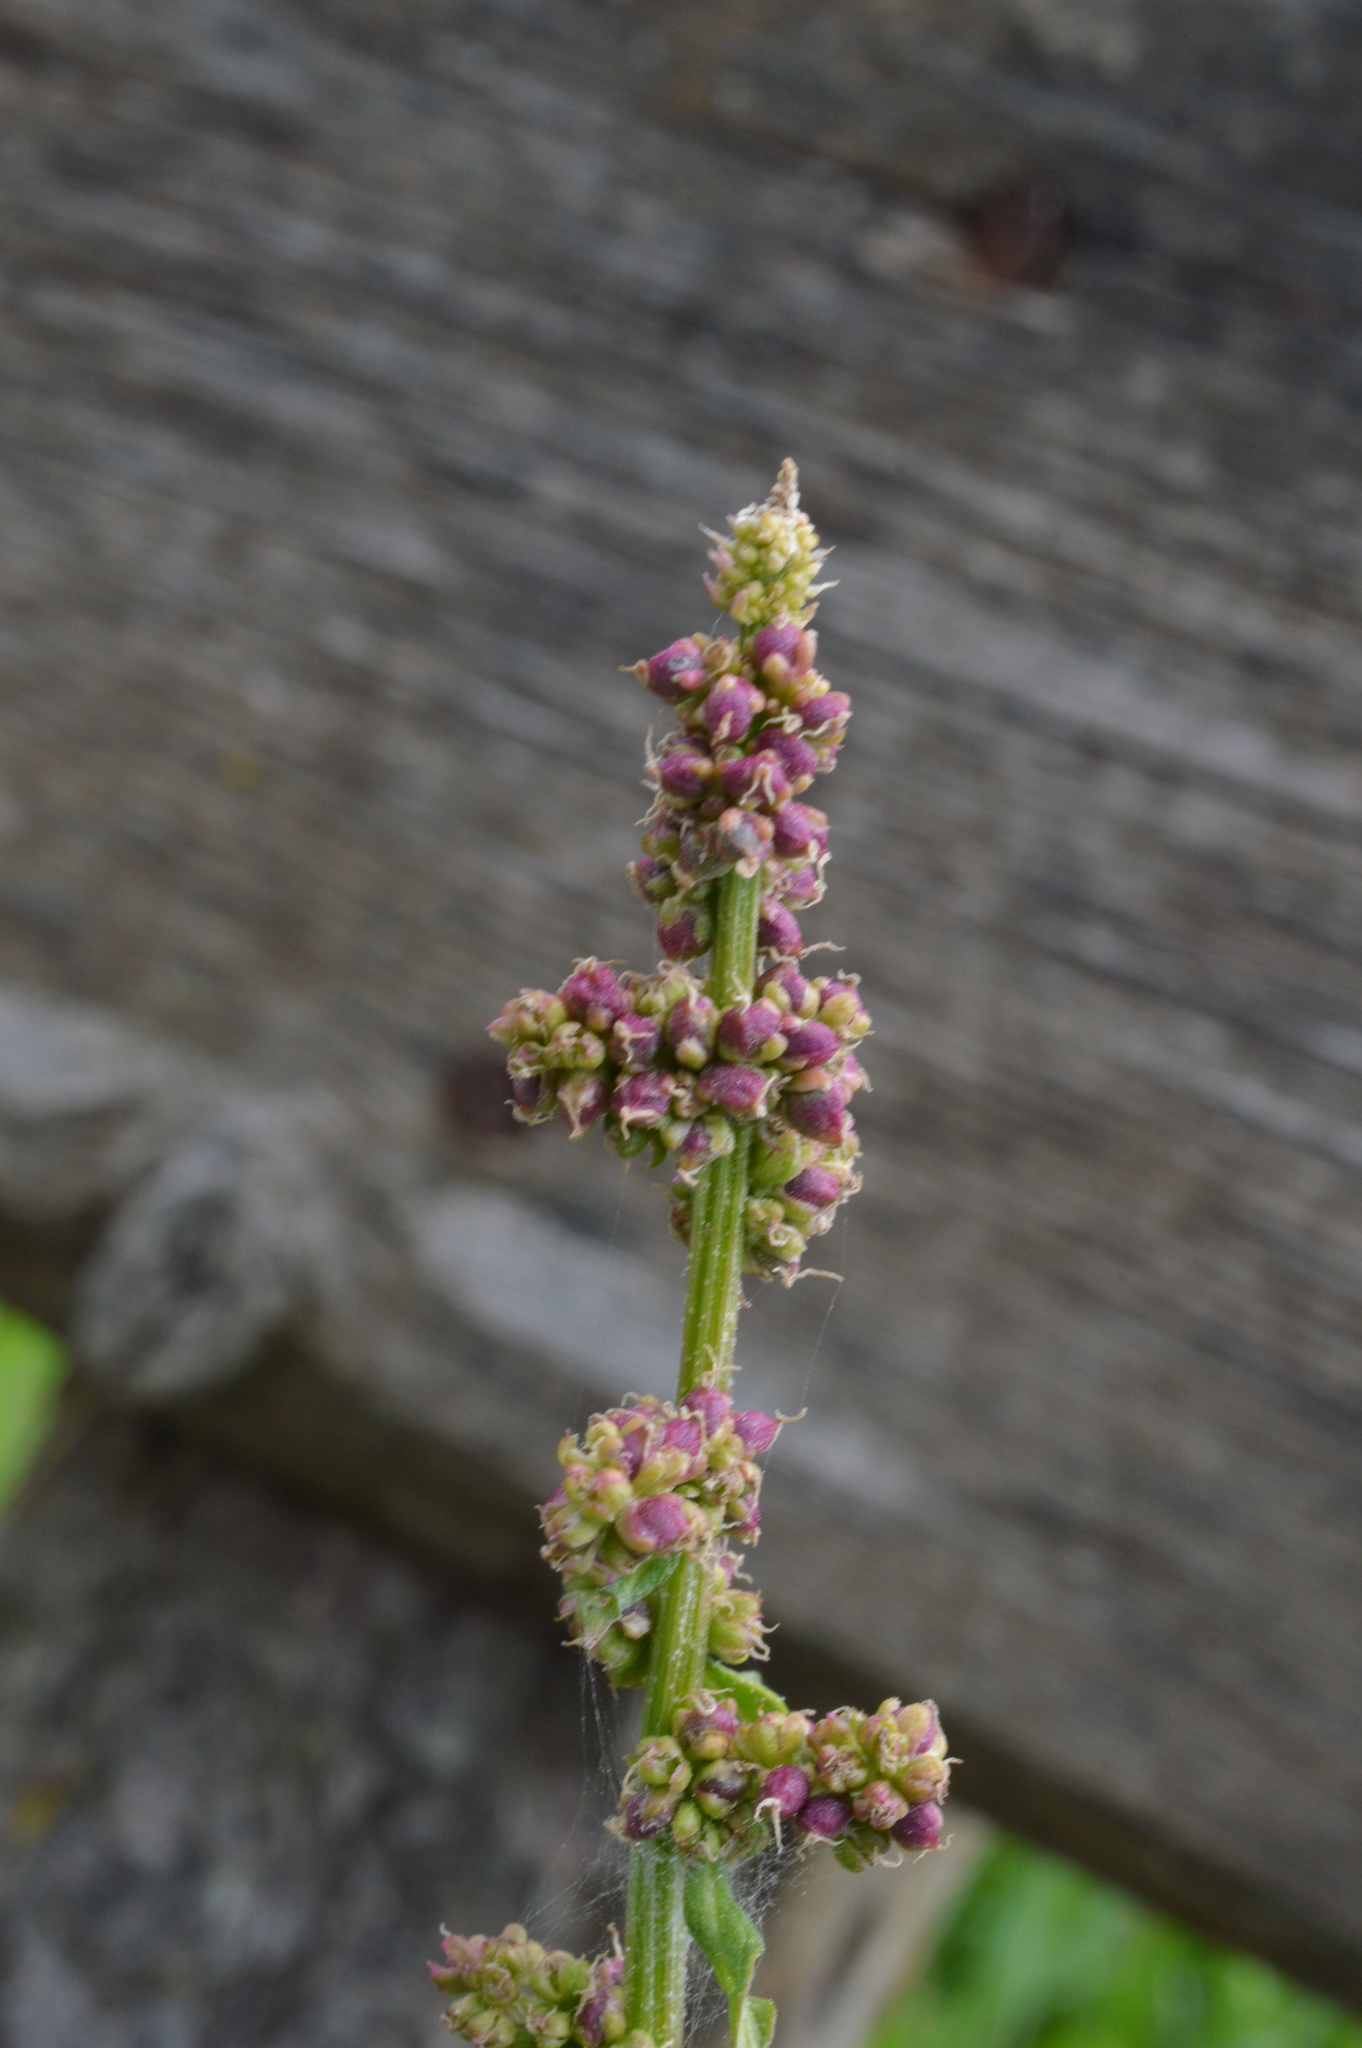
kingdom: Plantae
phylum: Tracheophyta
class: Magnoliopsida
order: Caryophyllales
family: Amaranthaceae
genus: Blitum
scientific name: Blitum bonus-henricus
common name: Good king henry
